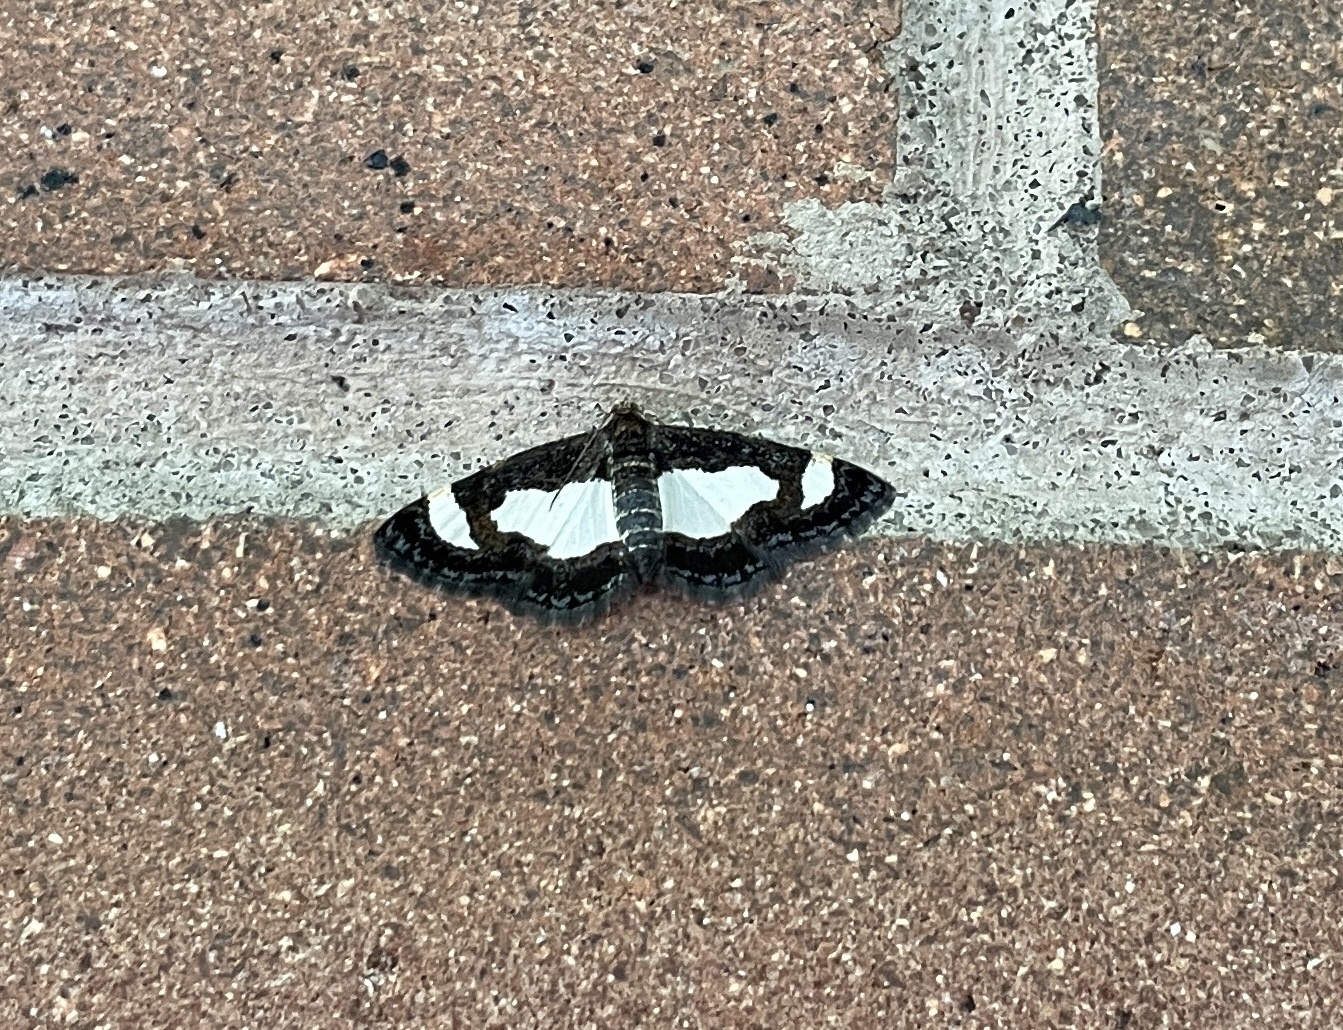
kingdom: Animalia
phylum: Arthropoda
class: Insecta
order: Lepidoptera
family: Geometridae
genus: Heliomata
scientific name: Heliomata cycladata
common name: Common spring moth
